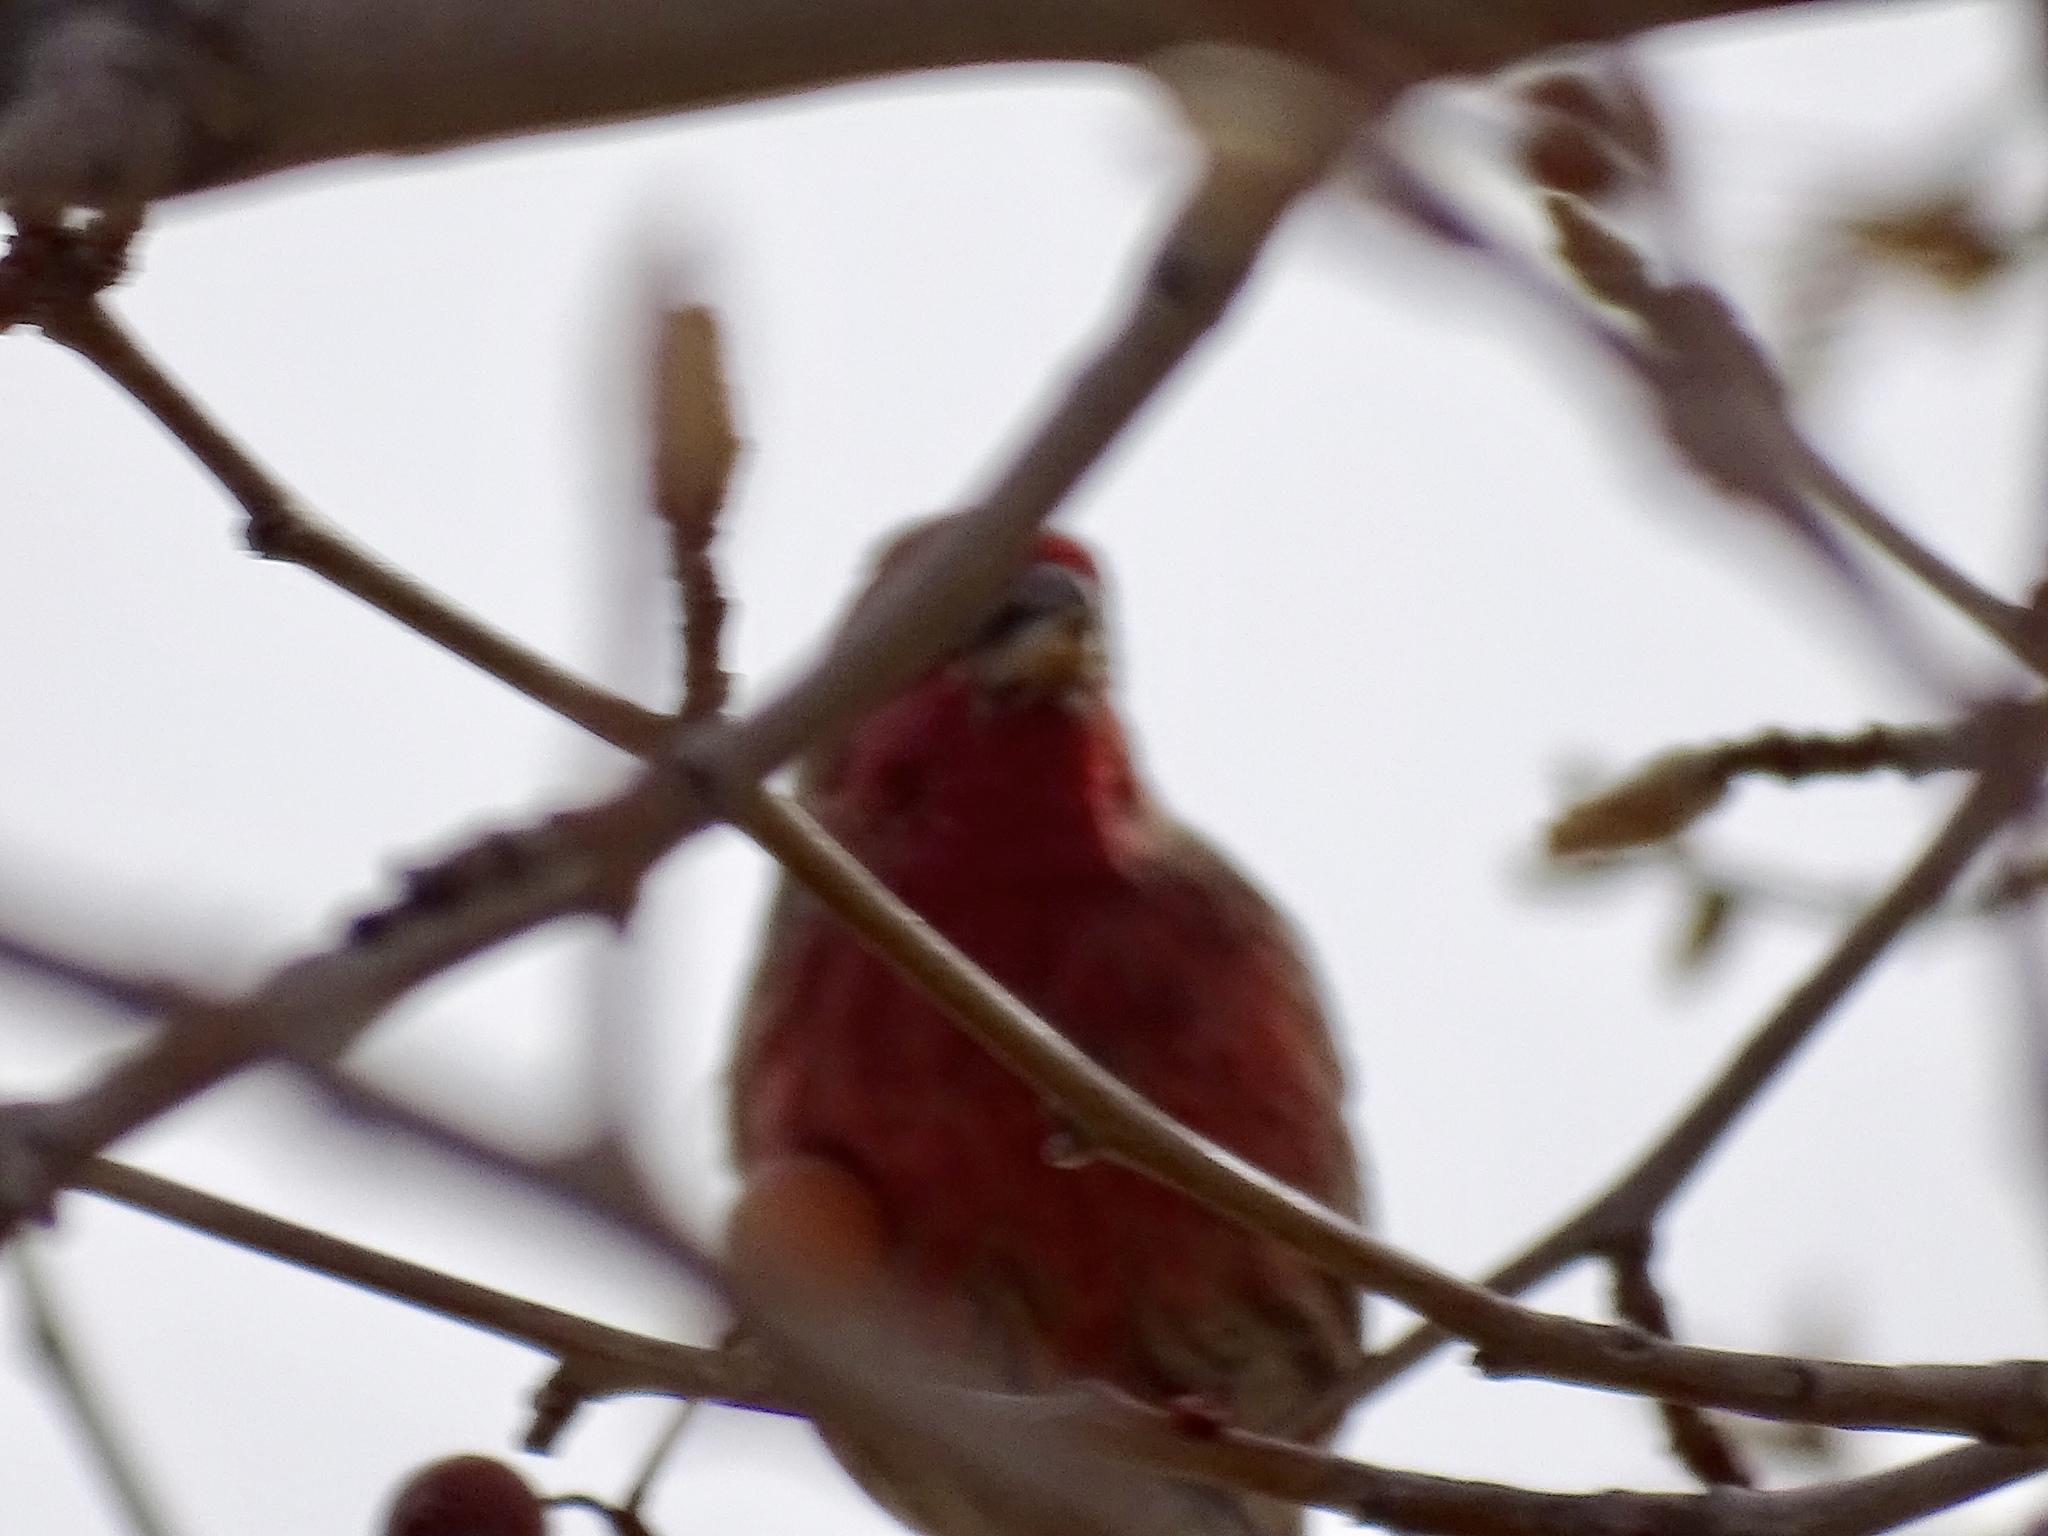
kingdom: Animalia
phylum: Chordata
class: Aves
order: Passeriformes
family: Fringillidae
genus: Haemorhous
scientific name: Haemorhous mexicanus
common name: House finch
